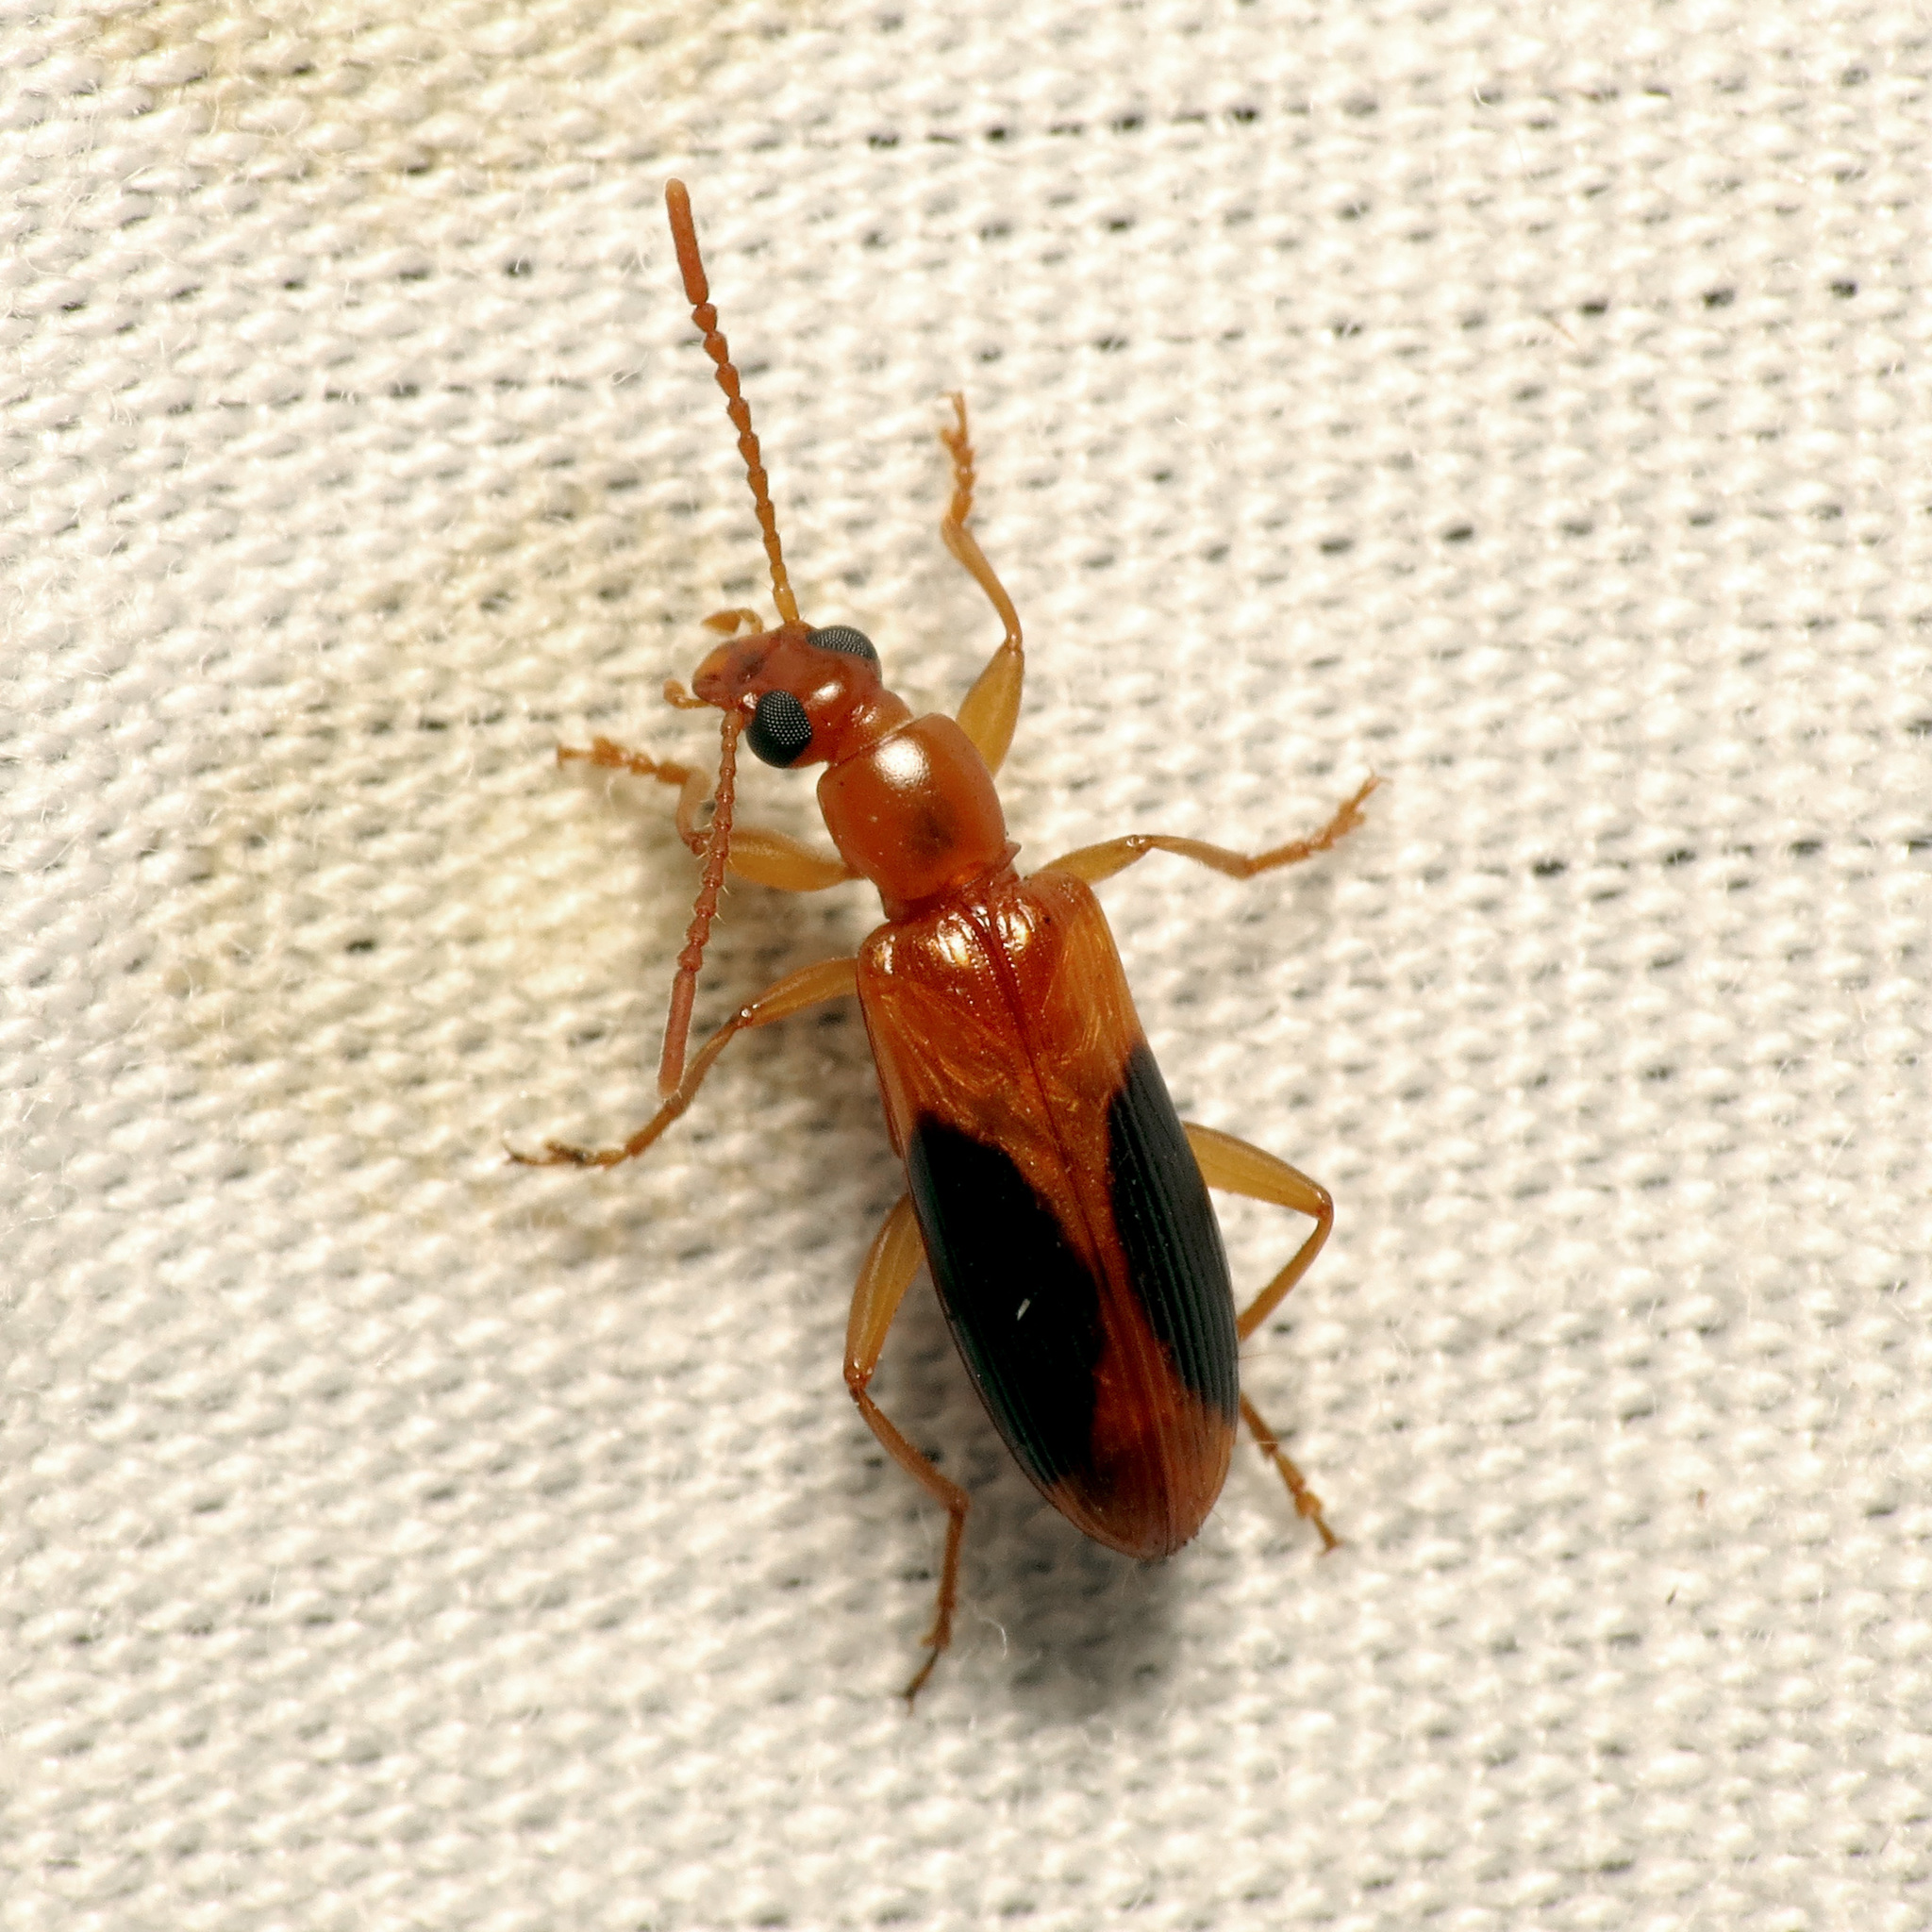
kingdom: Animalia
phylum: Arthropoda
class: Insecta
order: Coleoptera
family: Tenebrionidae
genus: Statira
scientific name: Statira nigromaculata
